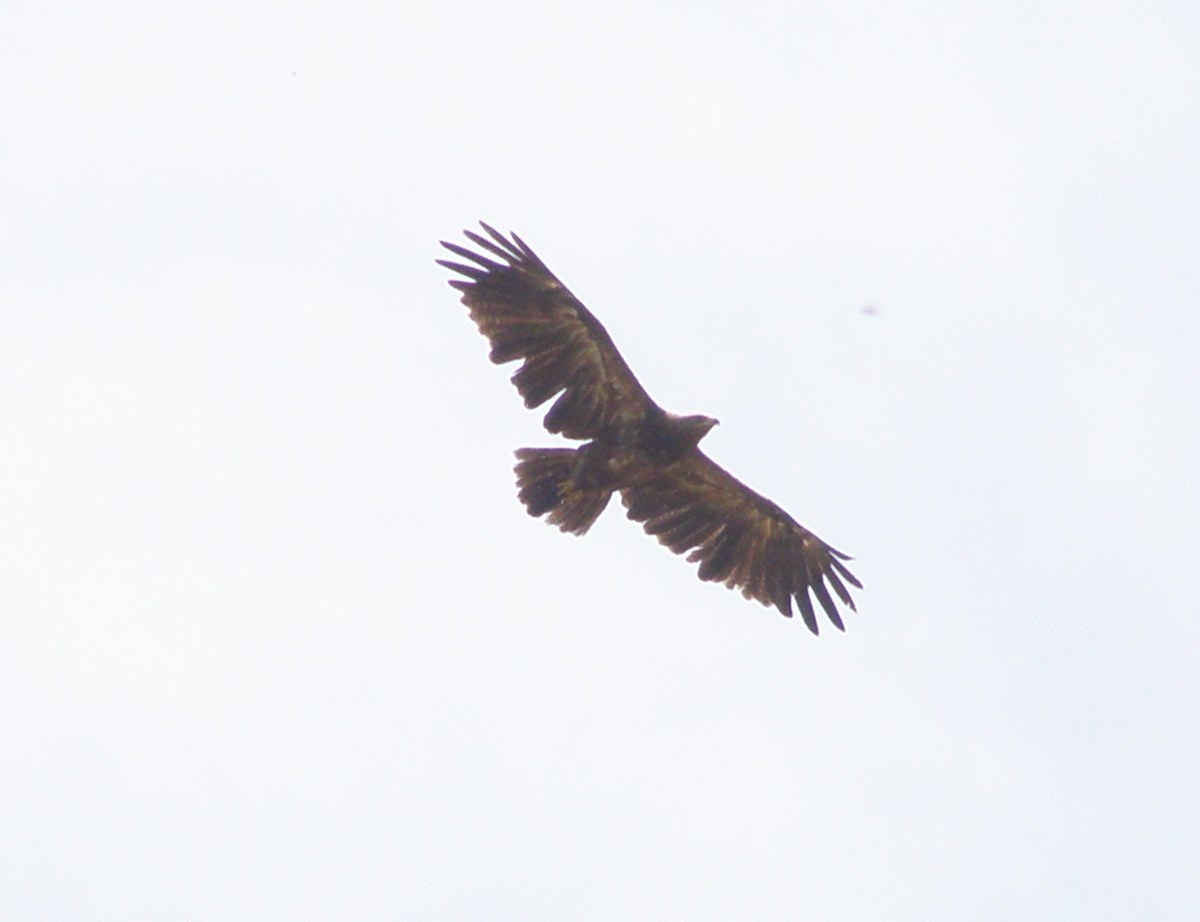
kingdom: Animalia
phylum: Chordata
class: Aves
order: Accipitriformes
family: Accipitridae
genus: Aquila
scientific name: Aquila pomarina
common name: Lesser spotted eagle
